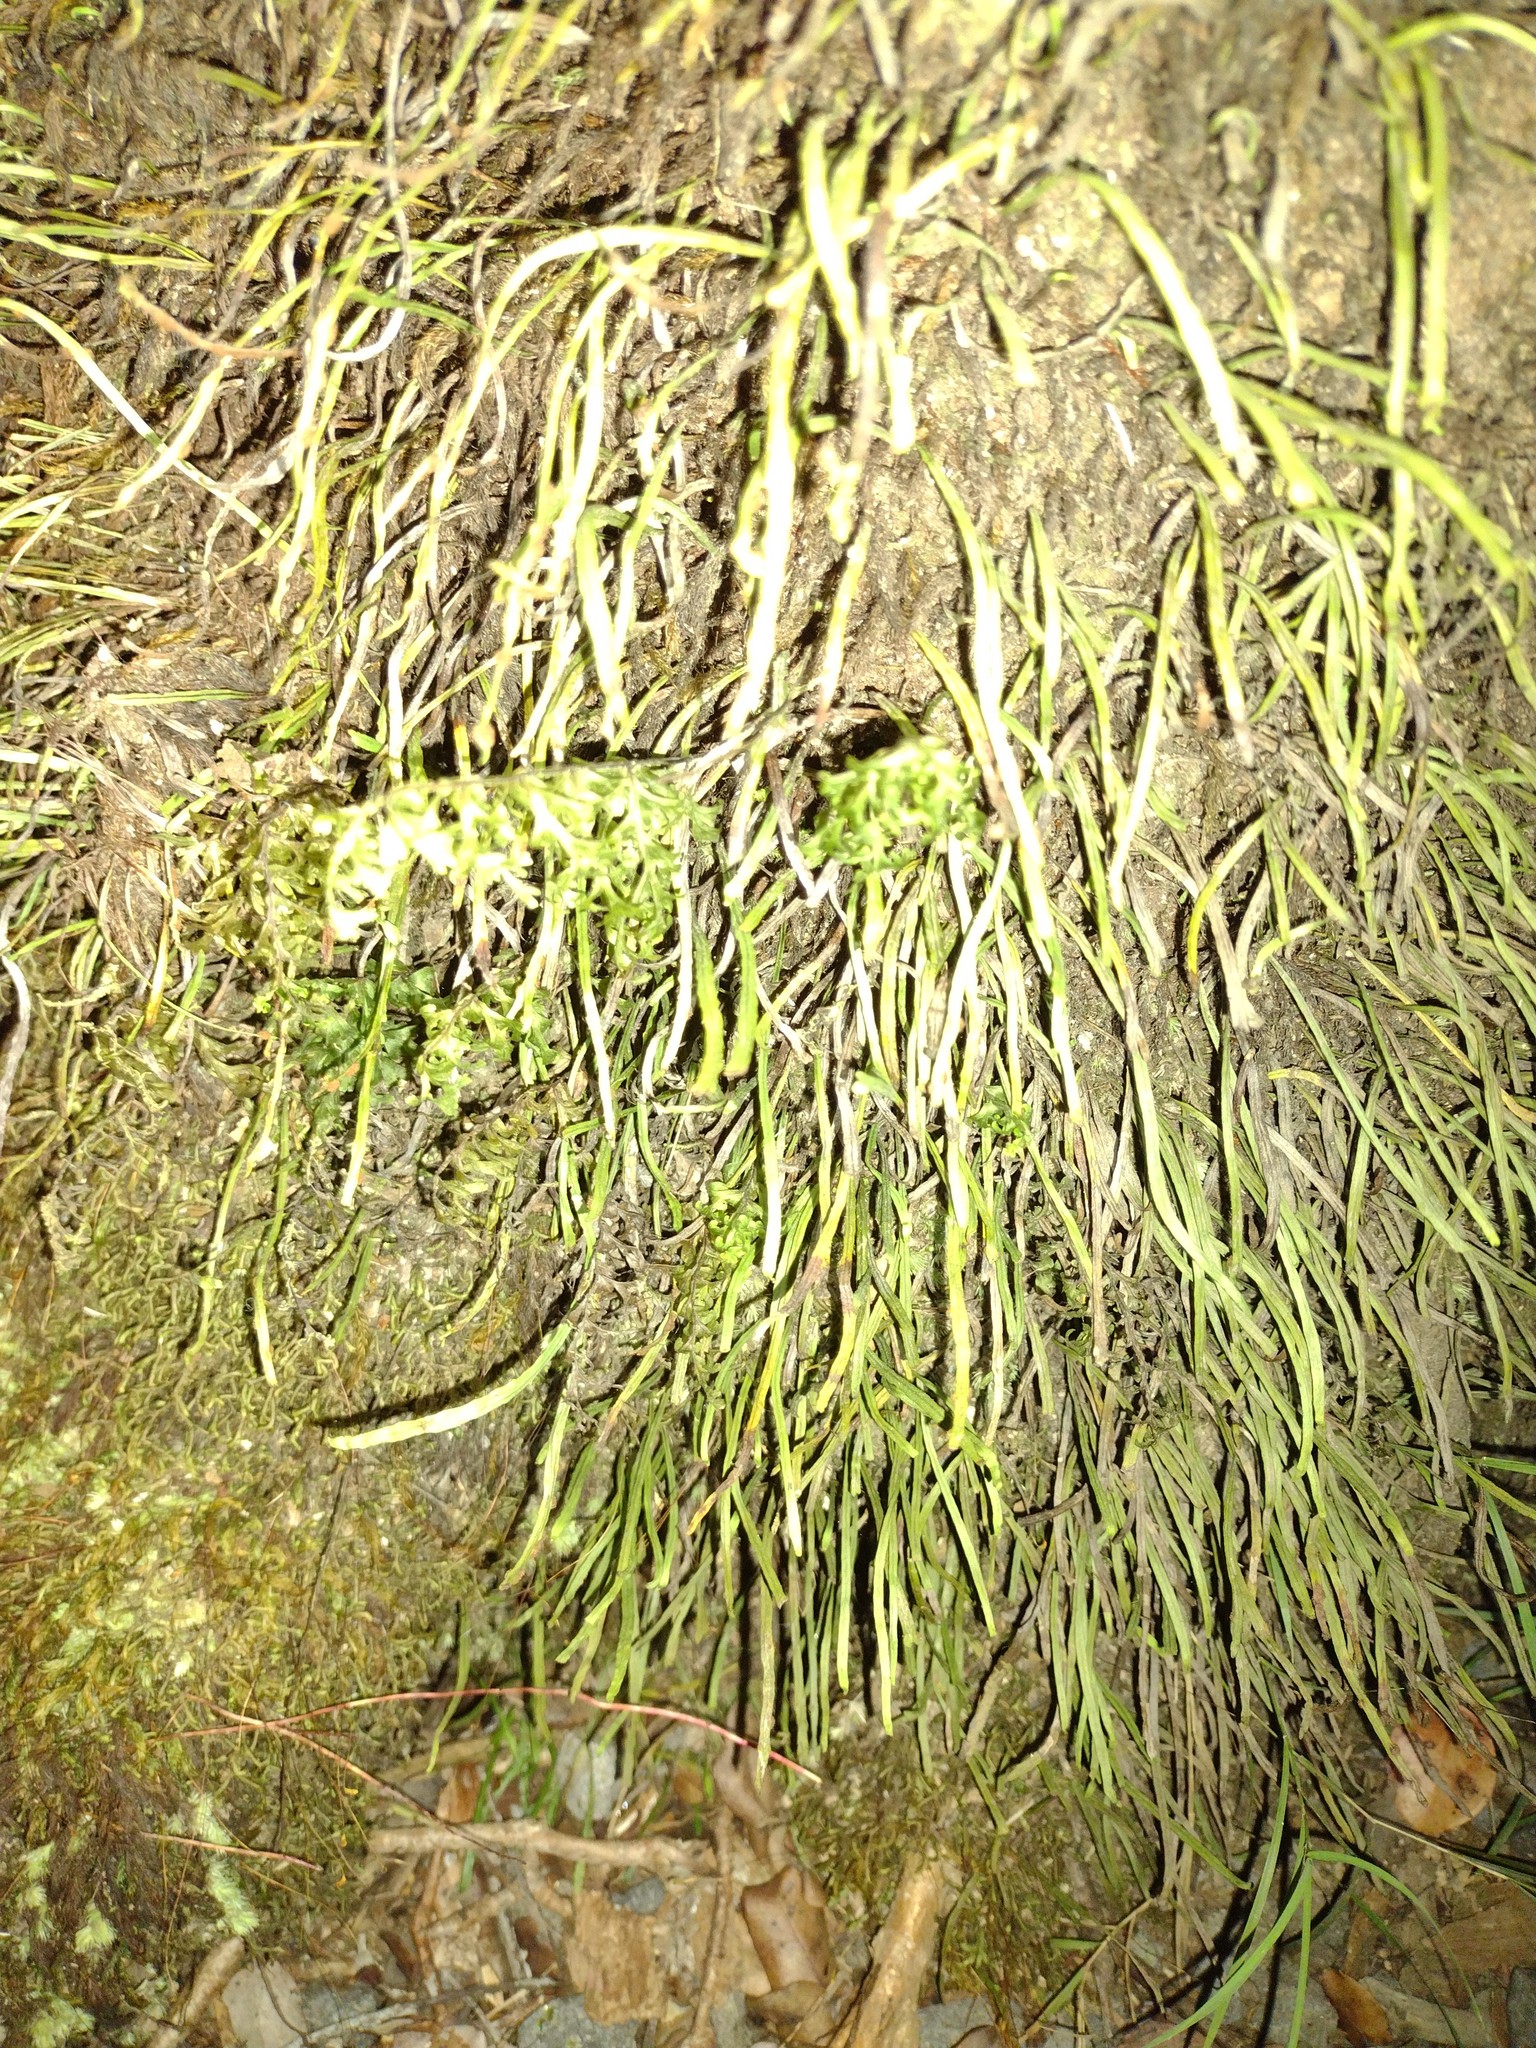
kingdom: Plantae
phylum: Tracheophyta
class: Polypodiopsida
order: Polypodiales
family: Polypodiaceae
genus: Adenophorus
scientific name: Adenophorus tenellus
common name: Kolokolo
